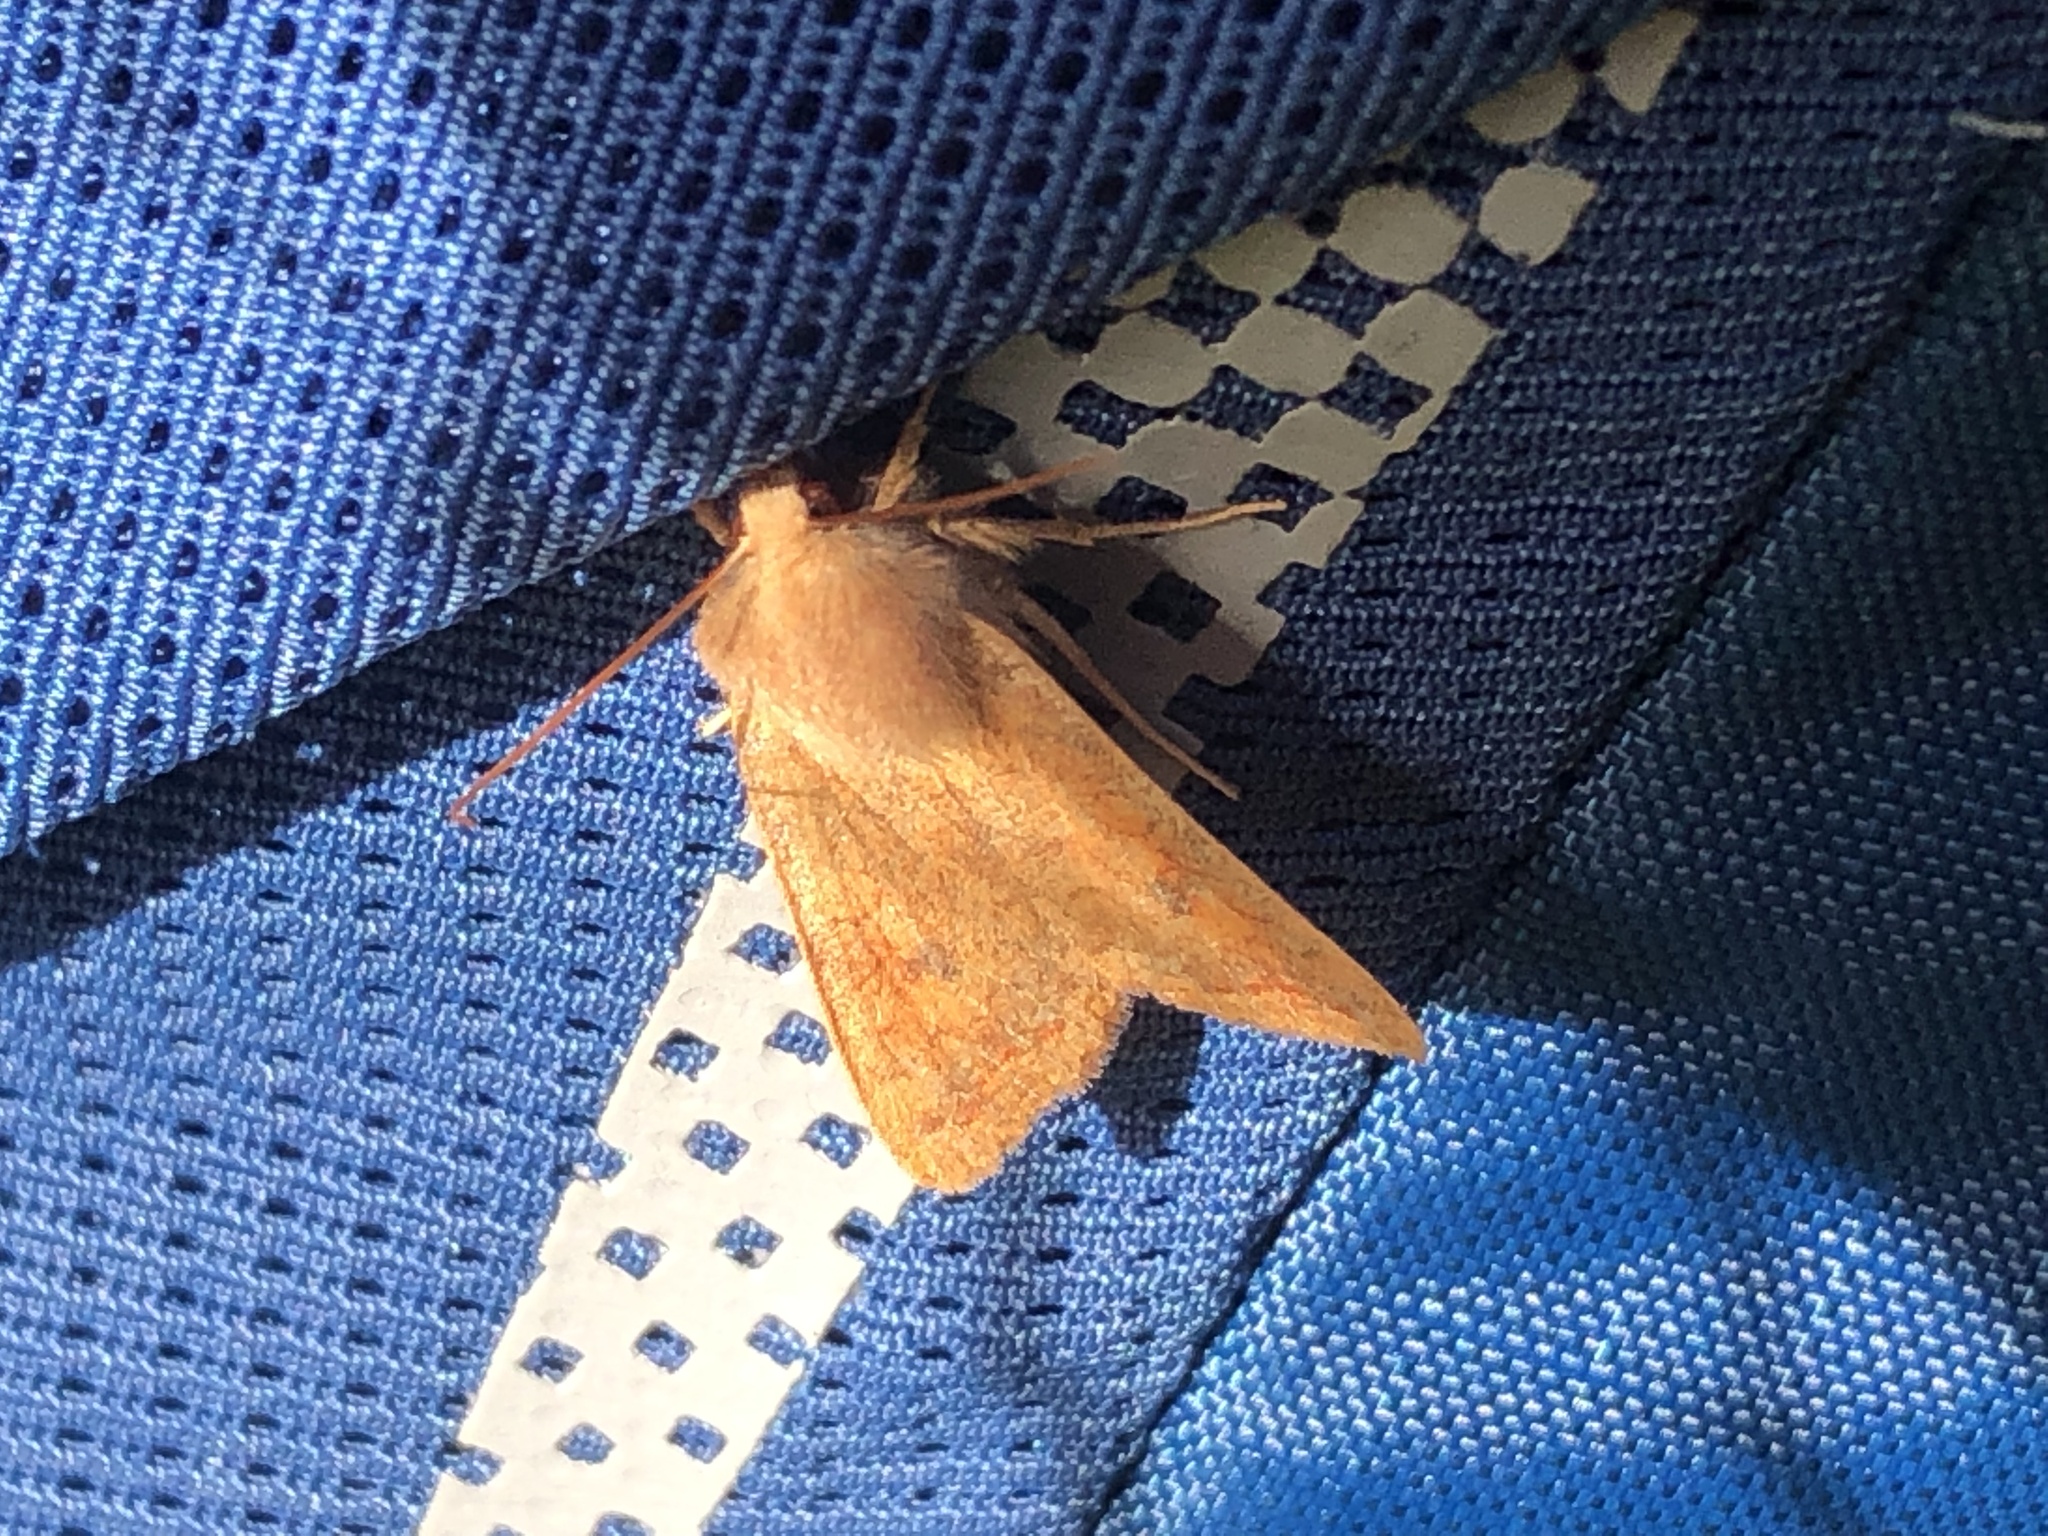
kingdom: Animalia
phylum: Arthropoda
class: Insecta
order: Lepidoptera
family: Noctuidae
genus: Sunira
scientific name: Sunira circellaris
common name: Brick
